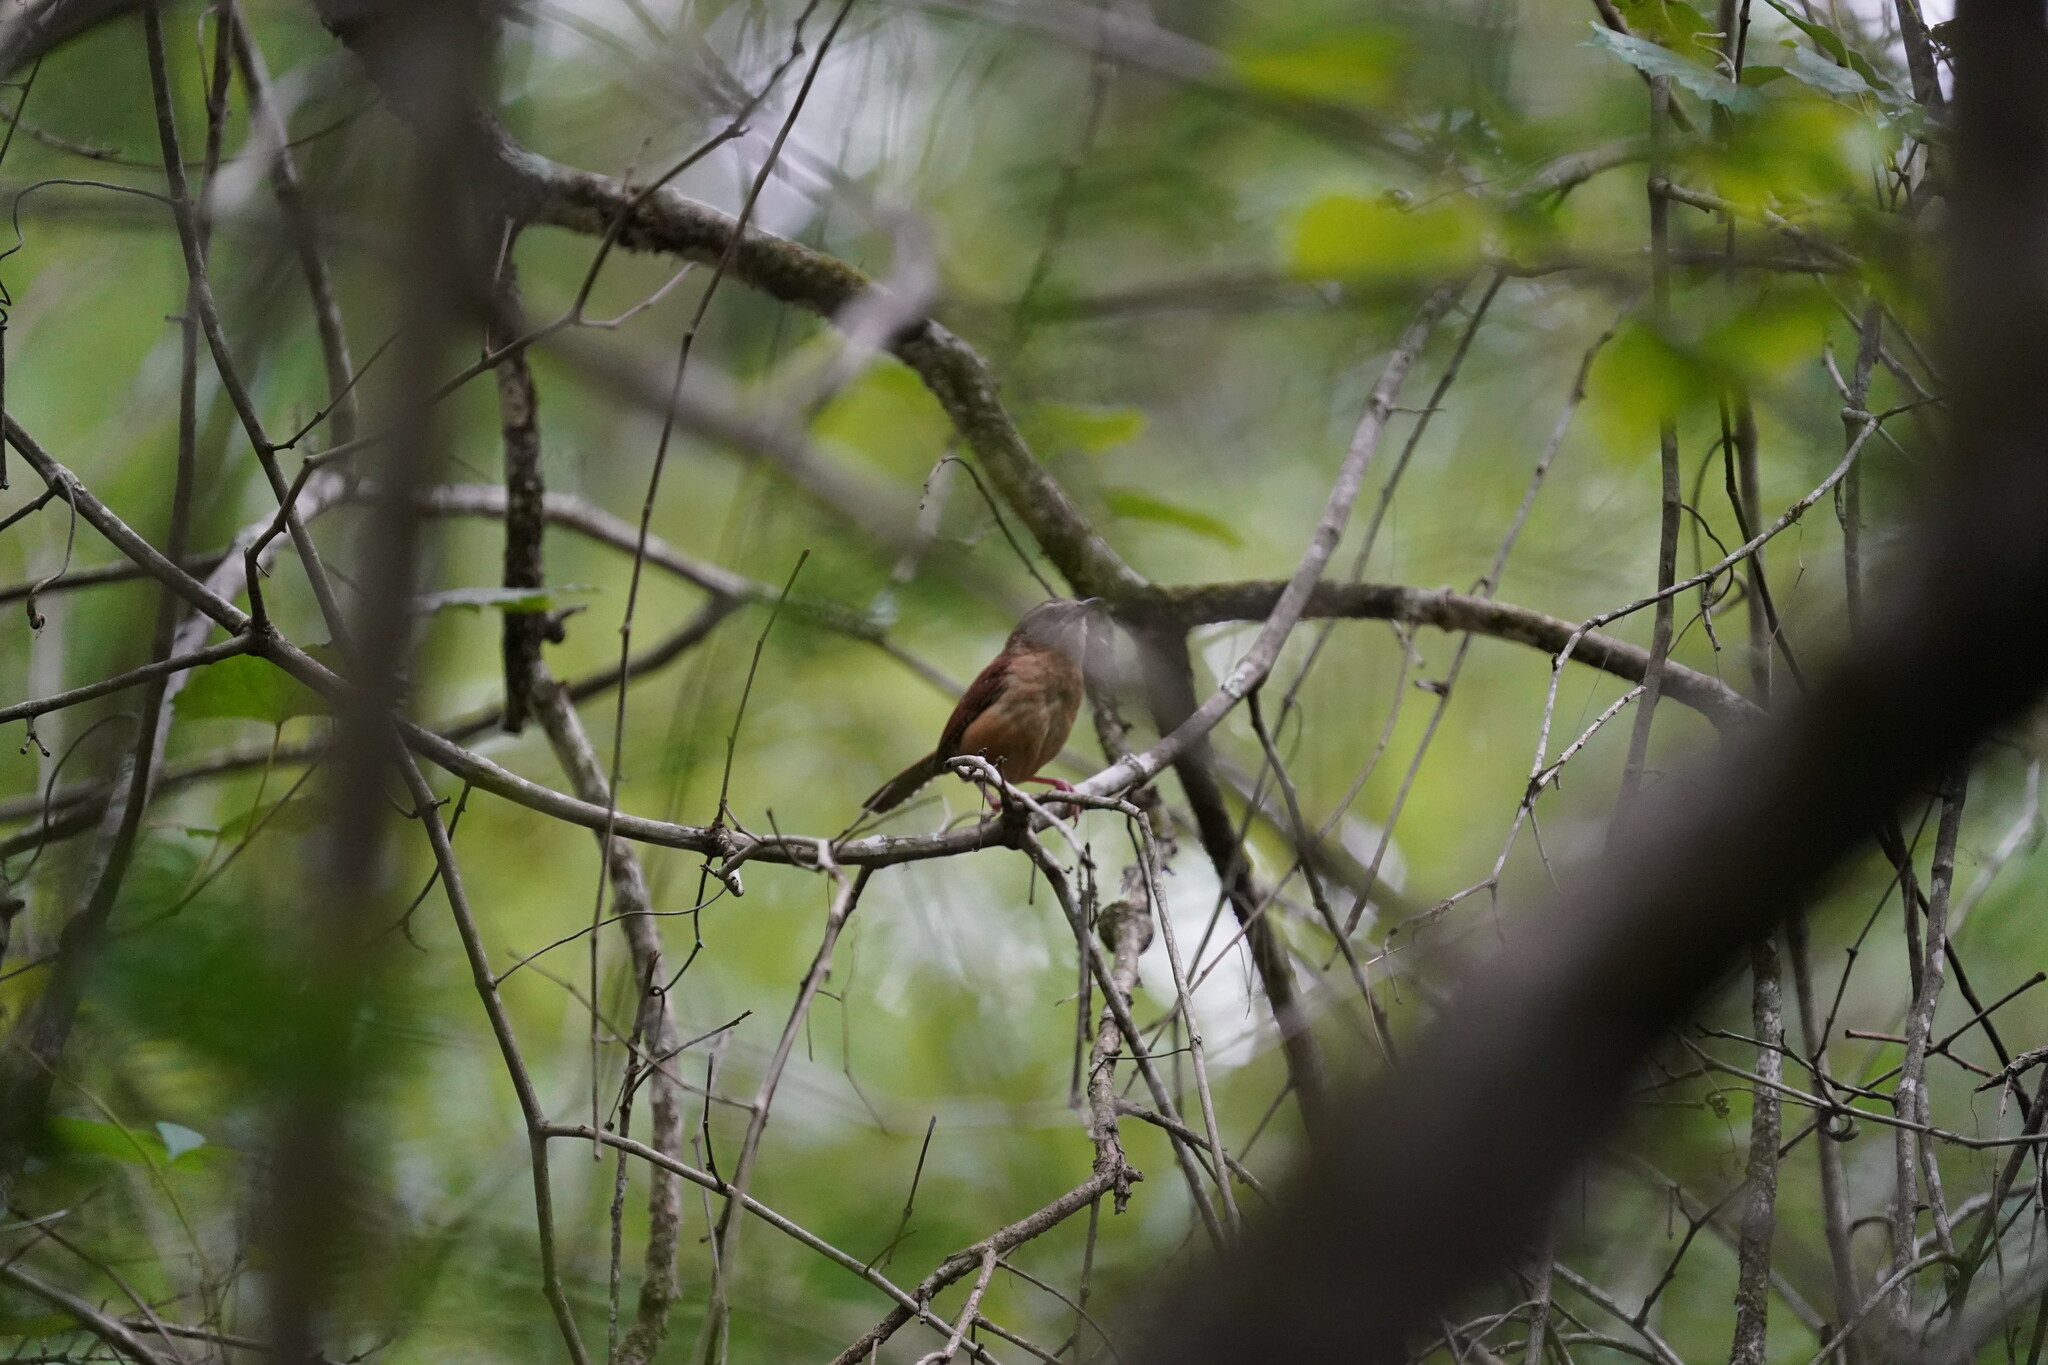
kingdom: Animalia
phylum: Chordata
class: Aves
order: Passeriformes
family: Troglodytidae
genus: Thryothorus
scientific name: Thryothorus ludovicianus
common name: Carolina wren
